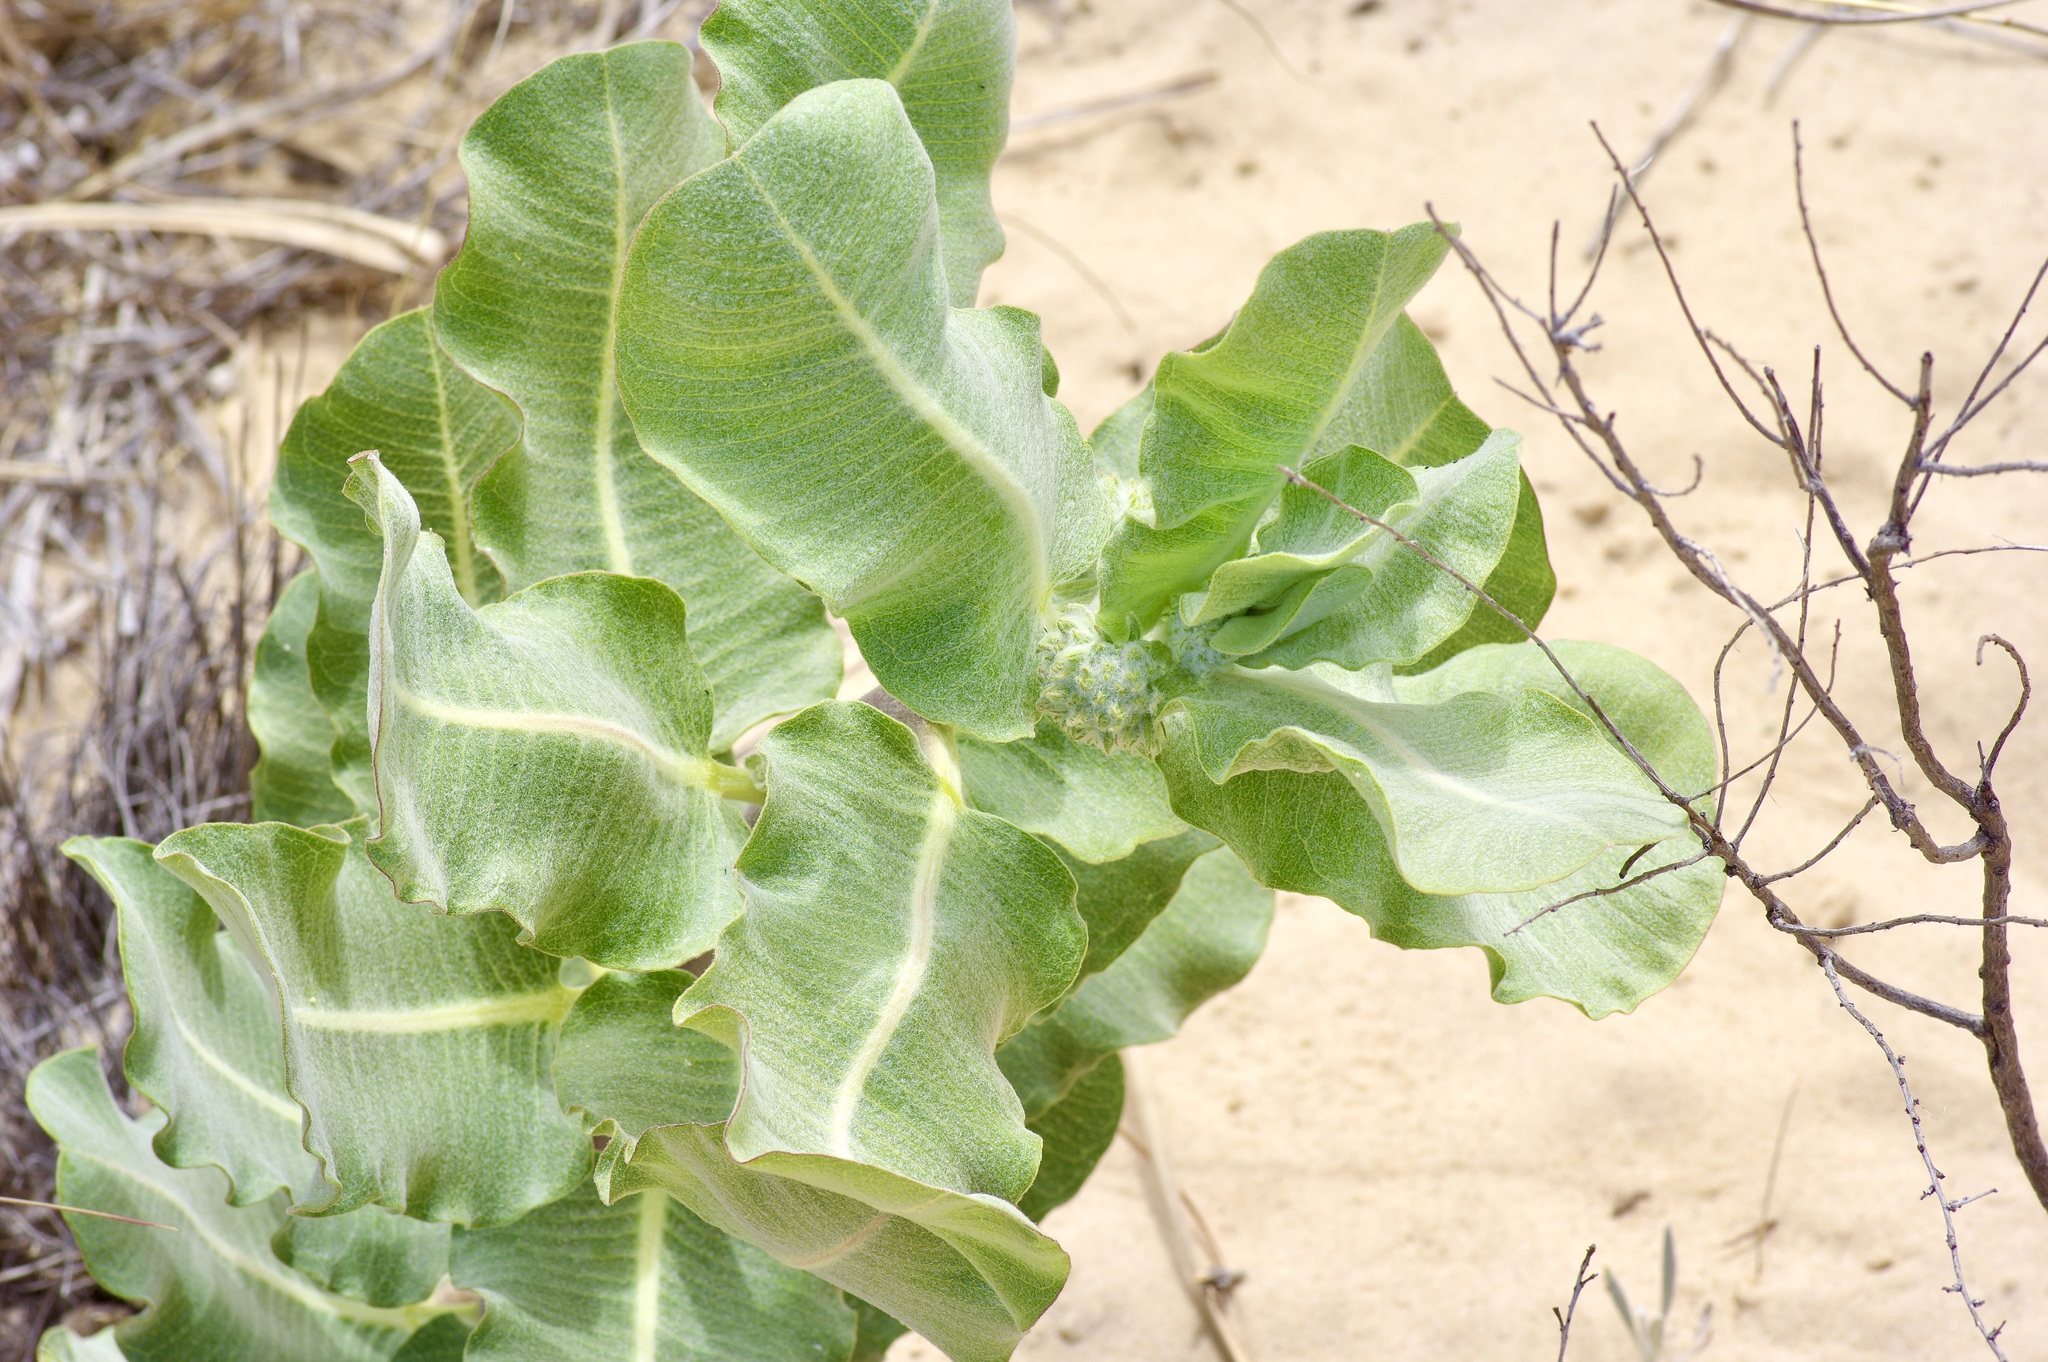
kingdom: Plantae
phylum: Tracheophyta
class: Magnoliopsida
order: Gentianales
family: Apocynaceae
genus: Asclepias
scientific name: Asclepias arenaria
